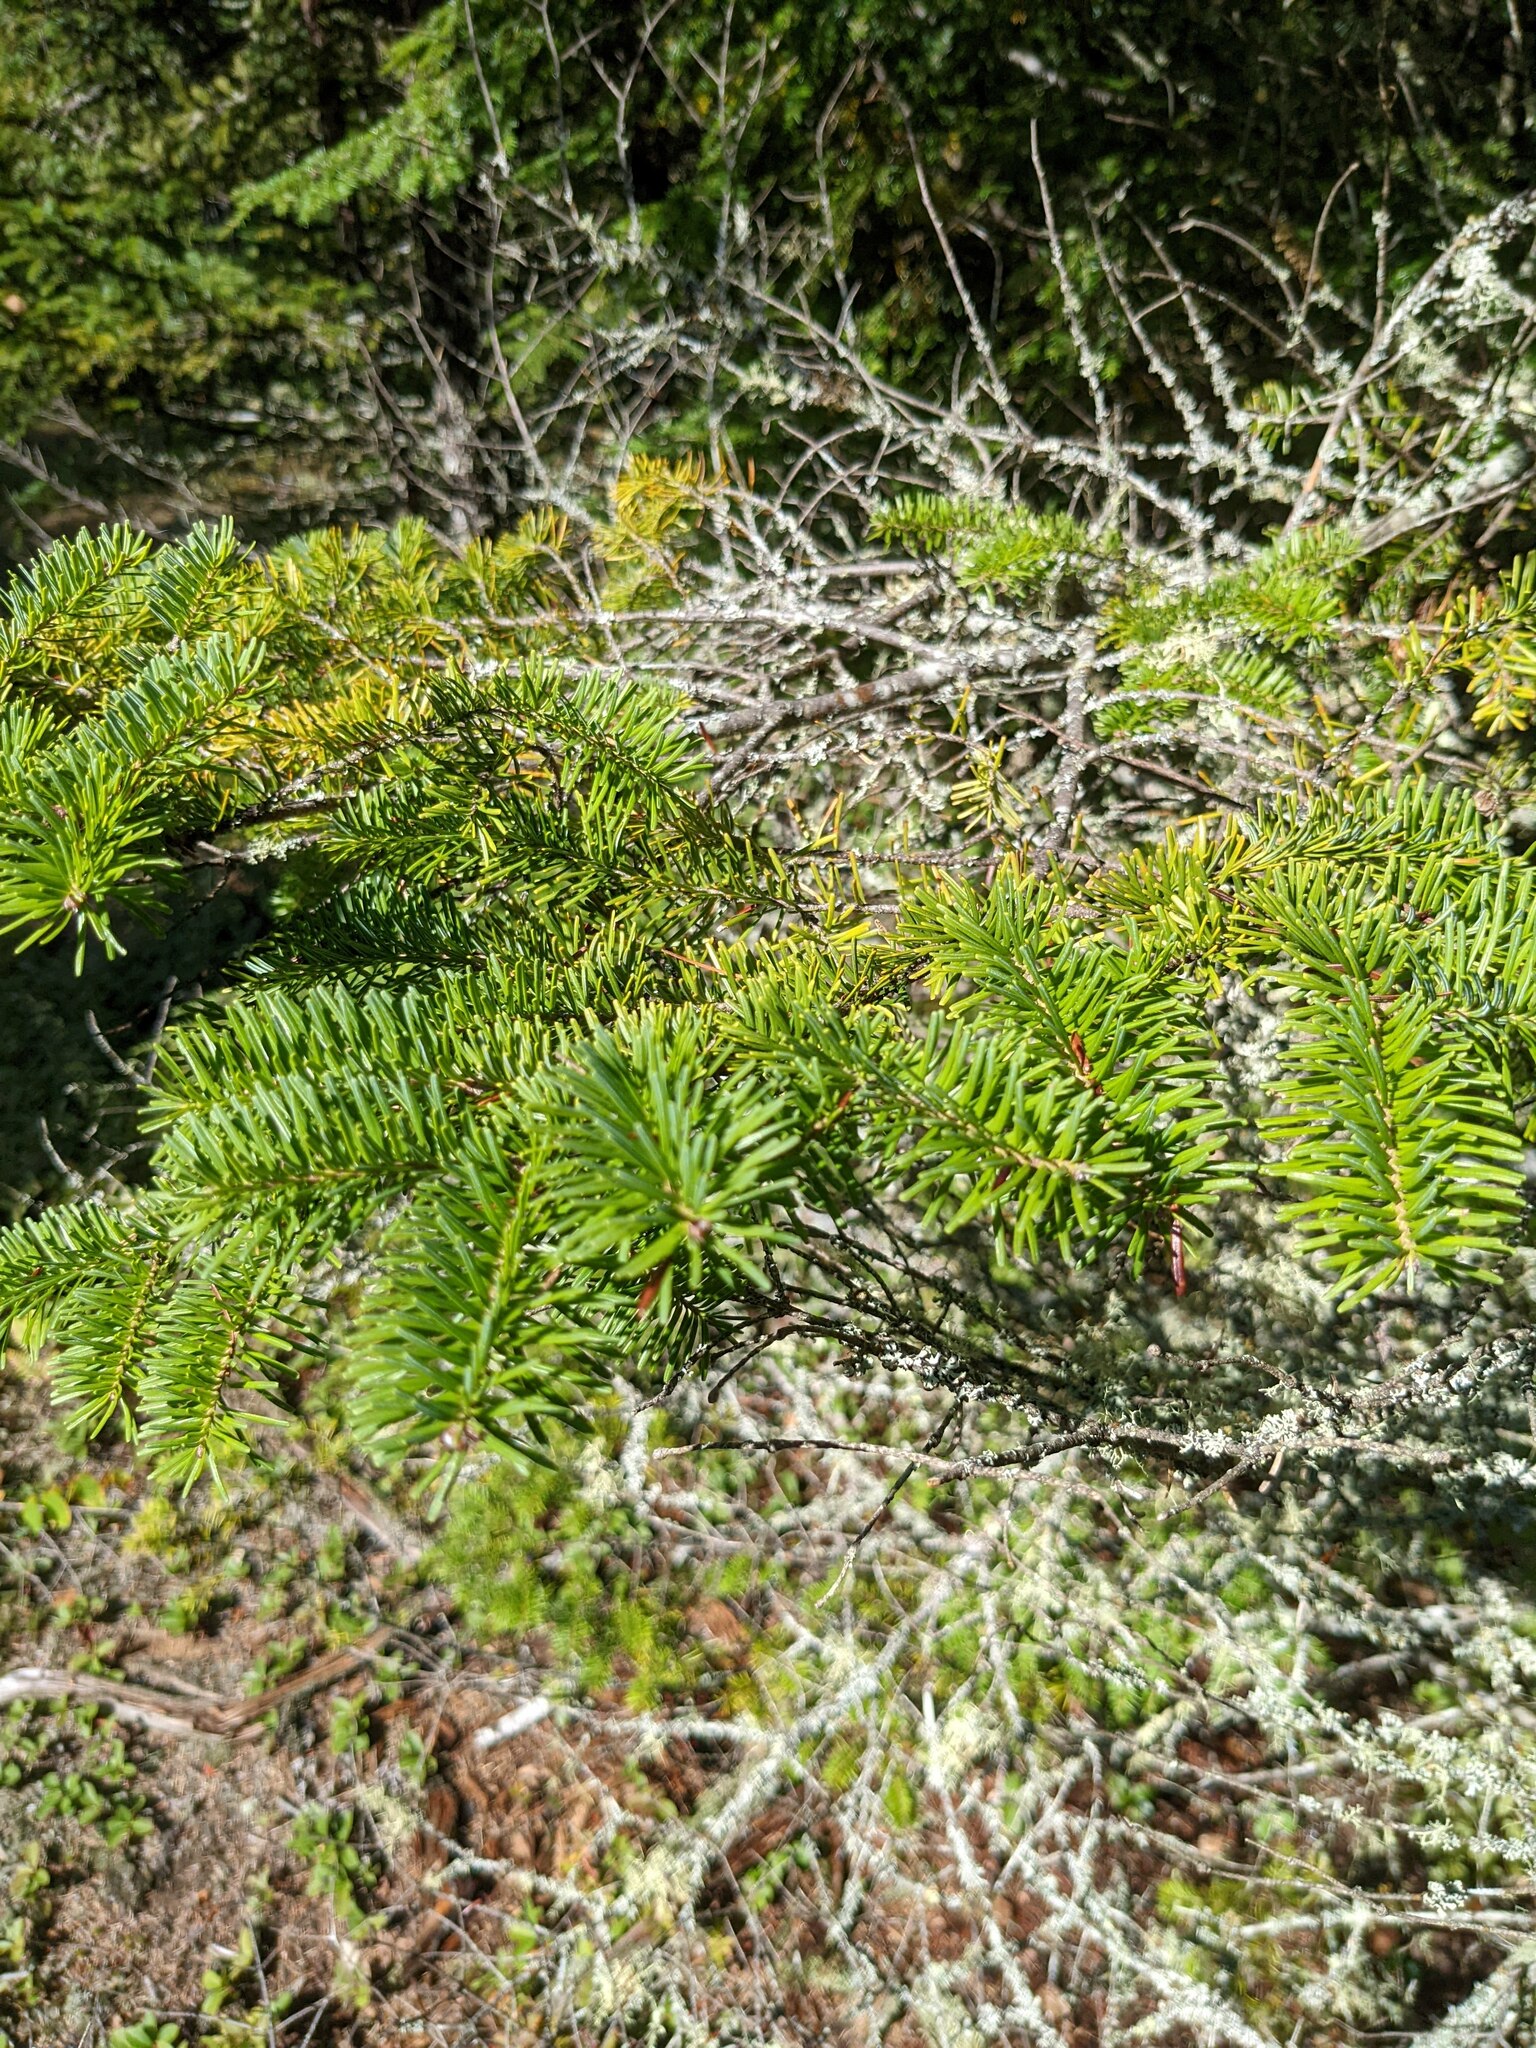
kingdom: Plantae
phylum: Tracheophyta
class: Pinopsida
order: Pinales
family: Pinaceae
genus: Abies
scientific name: Abies balsamea
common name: Balsam fir
